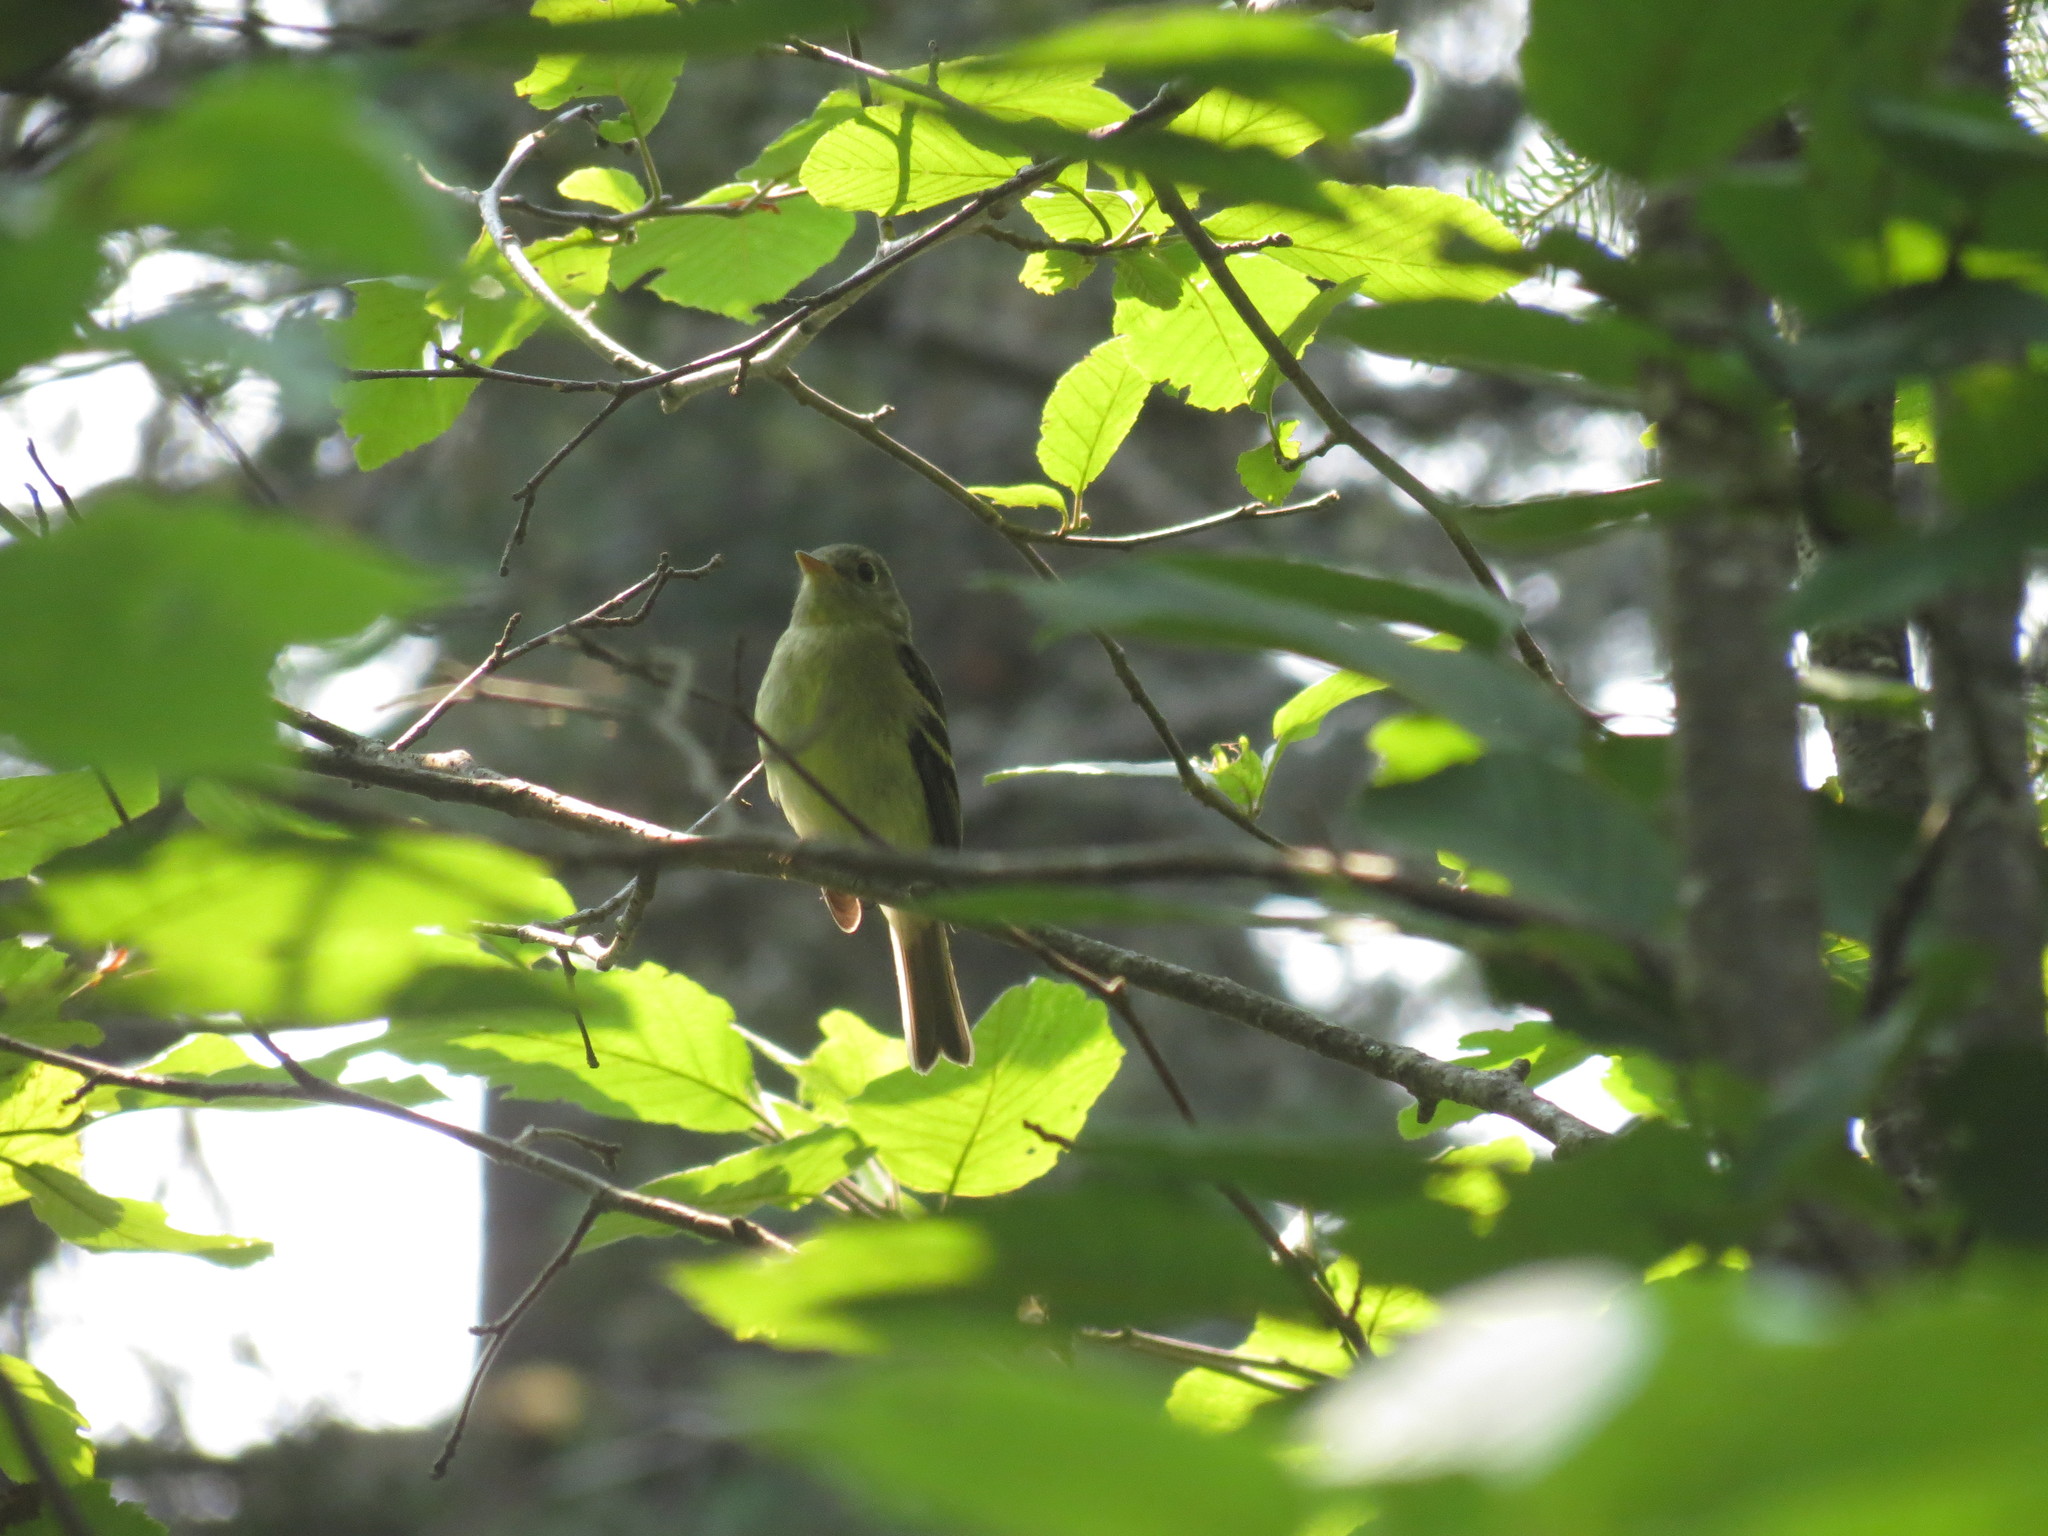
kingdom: Animalia
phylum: Chordata
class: Aves
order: Passeriformes
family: Tyrannidae
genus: Empidonax
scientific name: Empidonax flaviventris
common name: Yellow-bellied flycatcher
